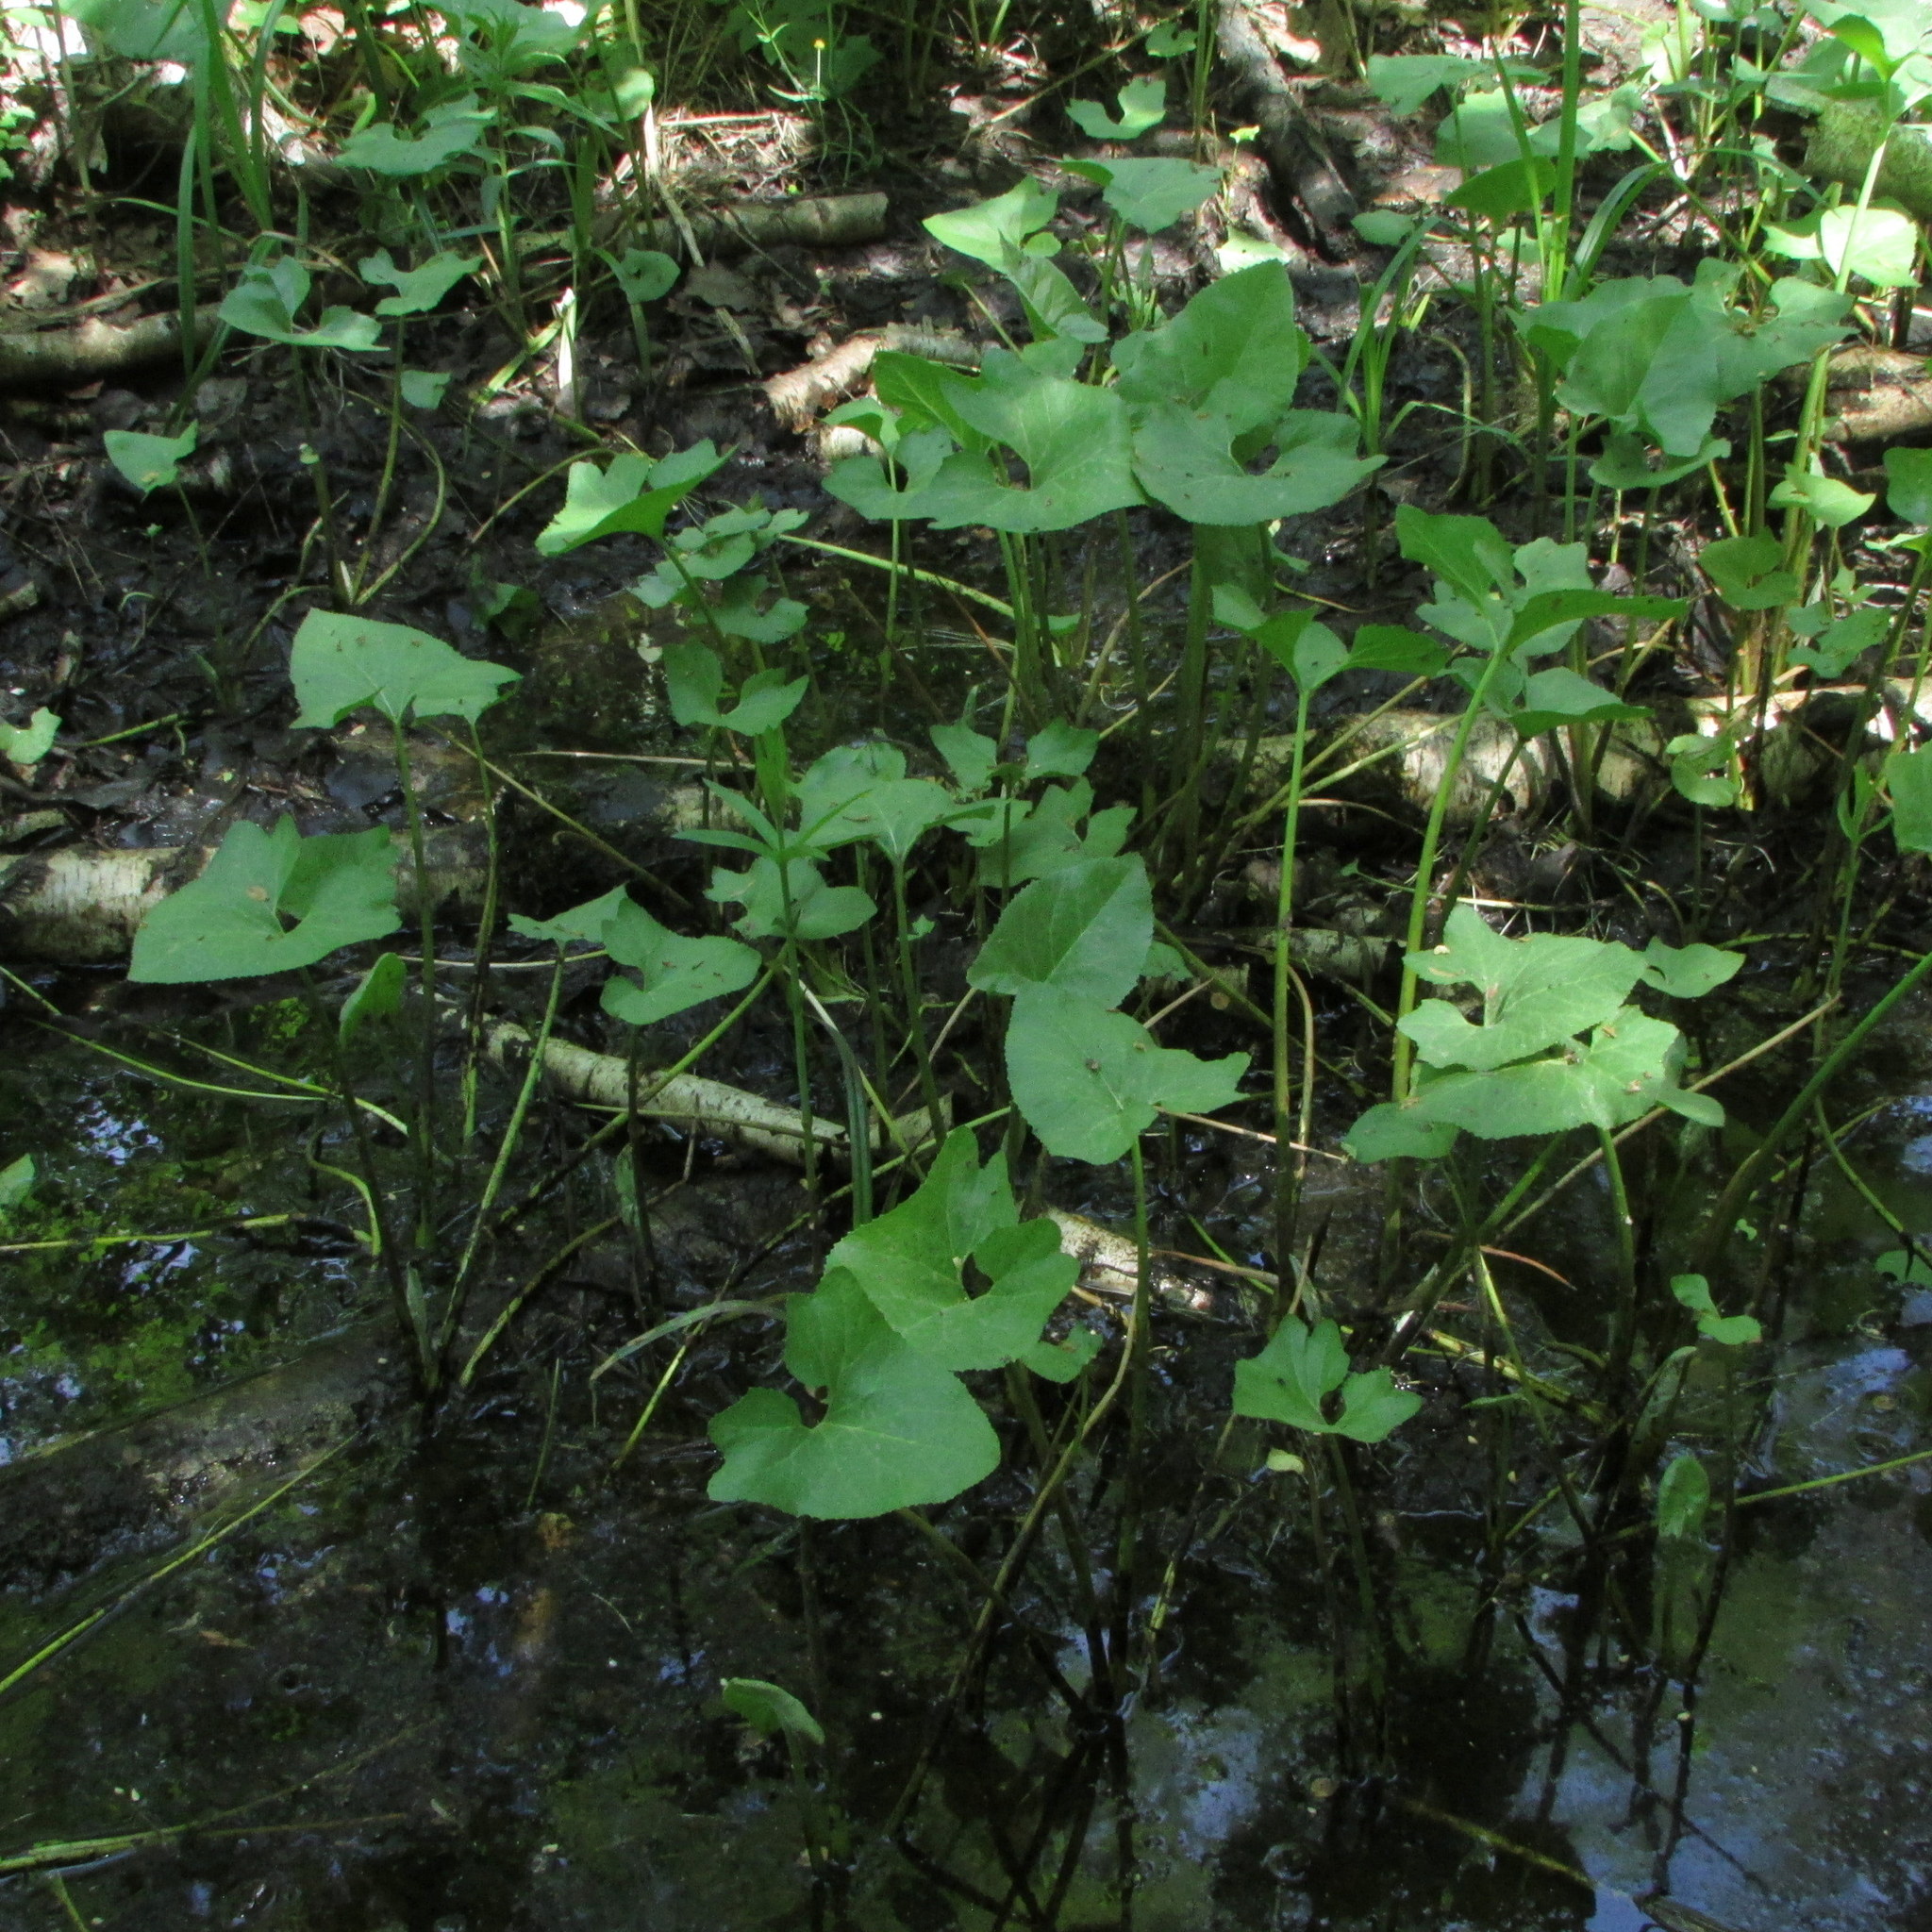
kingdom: Plantae
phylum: Tracheophyta
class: Magnoliopsida
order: Asterales
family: Asteraceae
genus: Petasites
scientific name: Petasites spurius
